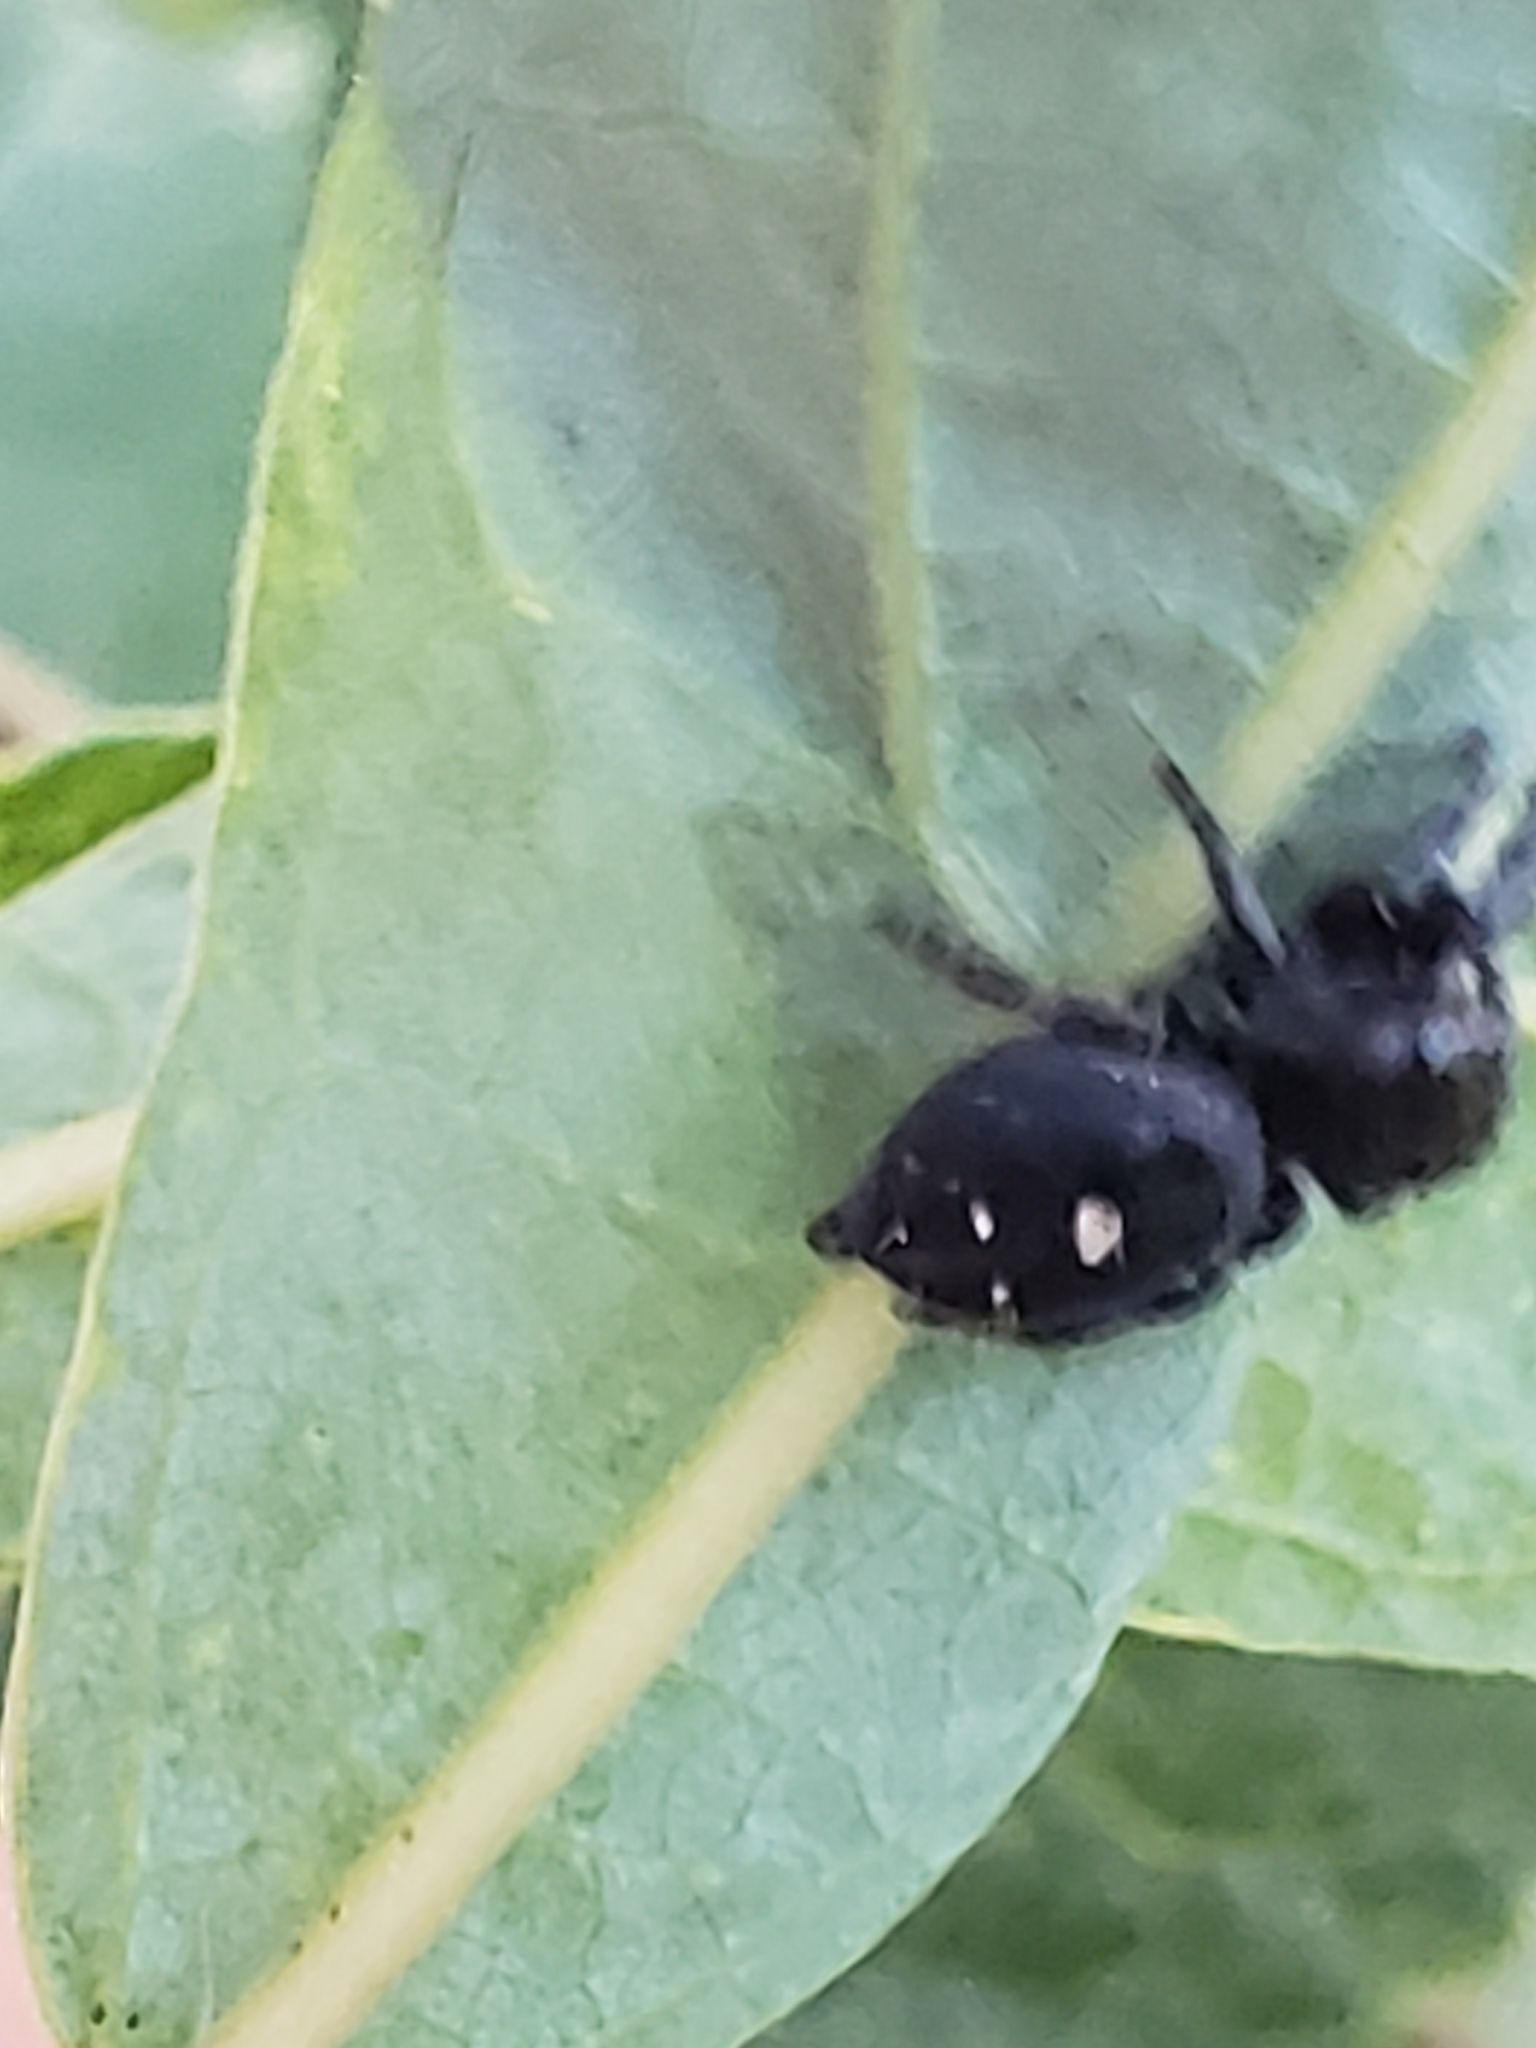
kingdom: Animalia
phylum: Arthropoda
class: Arachnida
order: Araneae
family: Salticidae
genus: Phidippus
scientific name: Phidippus audax
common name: Bold jumper
